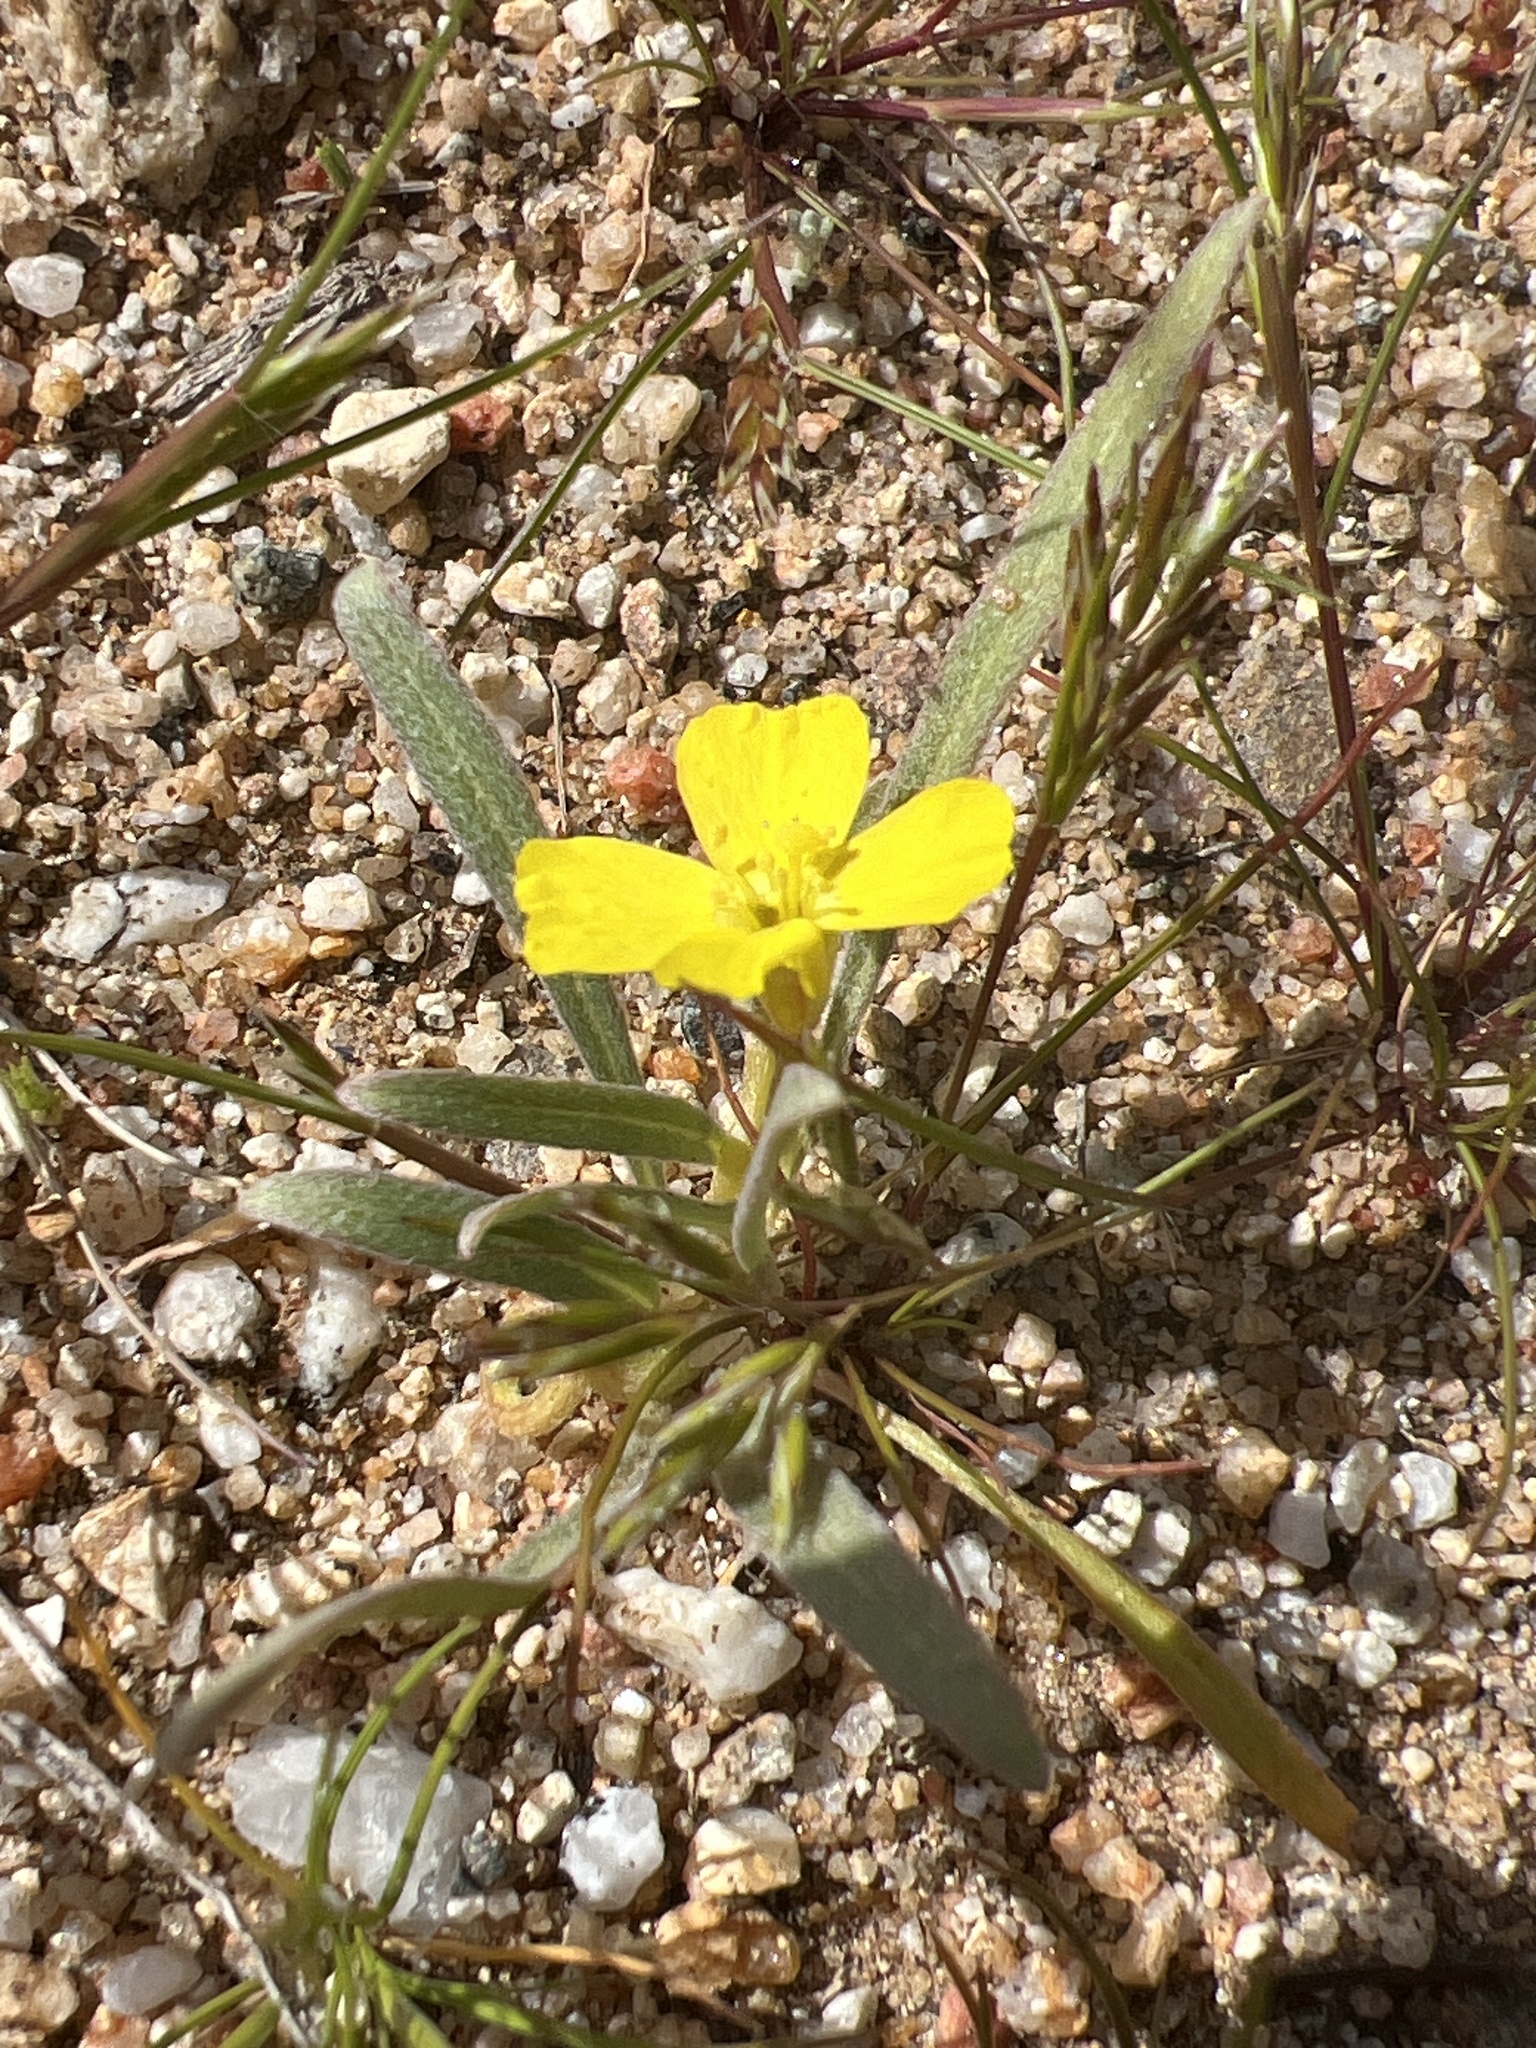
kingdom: Plantae
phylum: Tracheophyta
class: Magnoliopsida
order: Myrtales
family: Onagraceae
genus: Camissoniopsis
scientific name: Camissoniopsis pallida
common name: Paleyellow suncup
